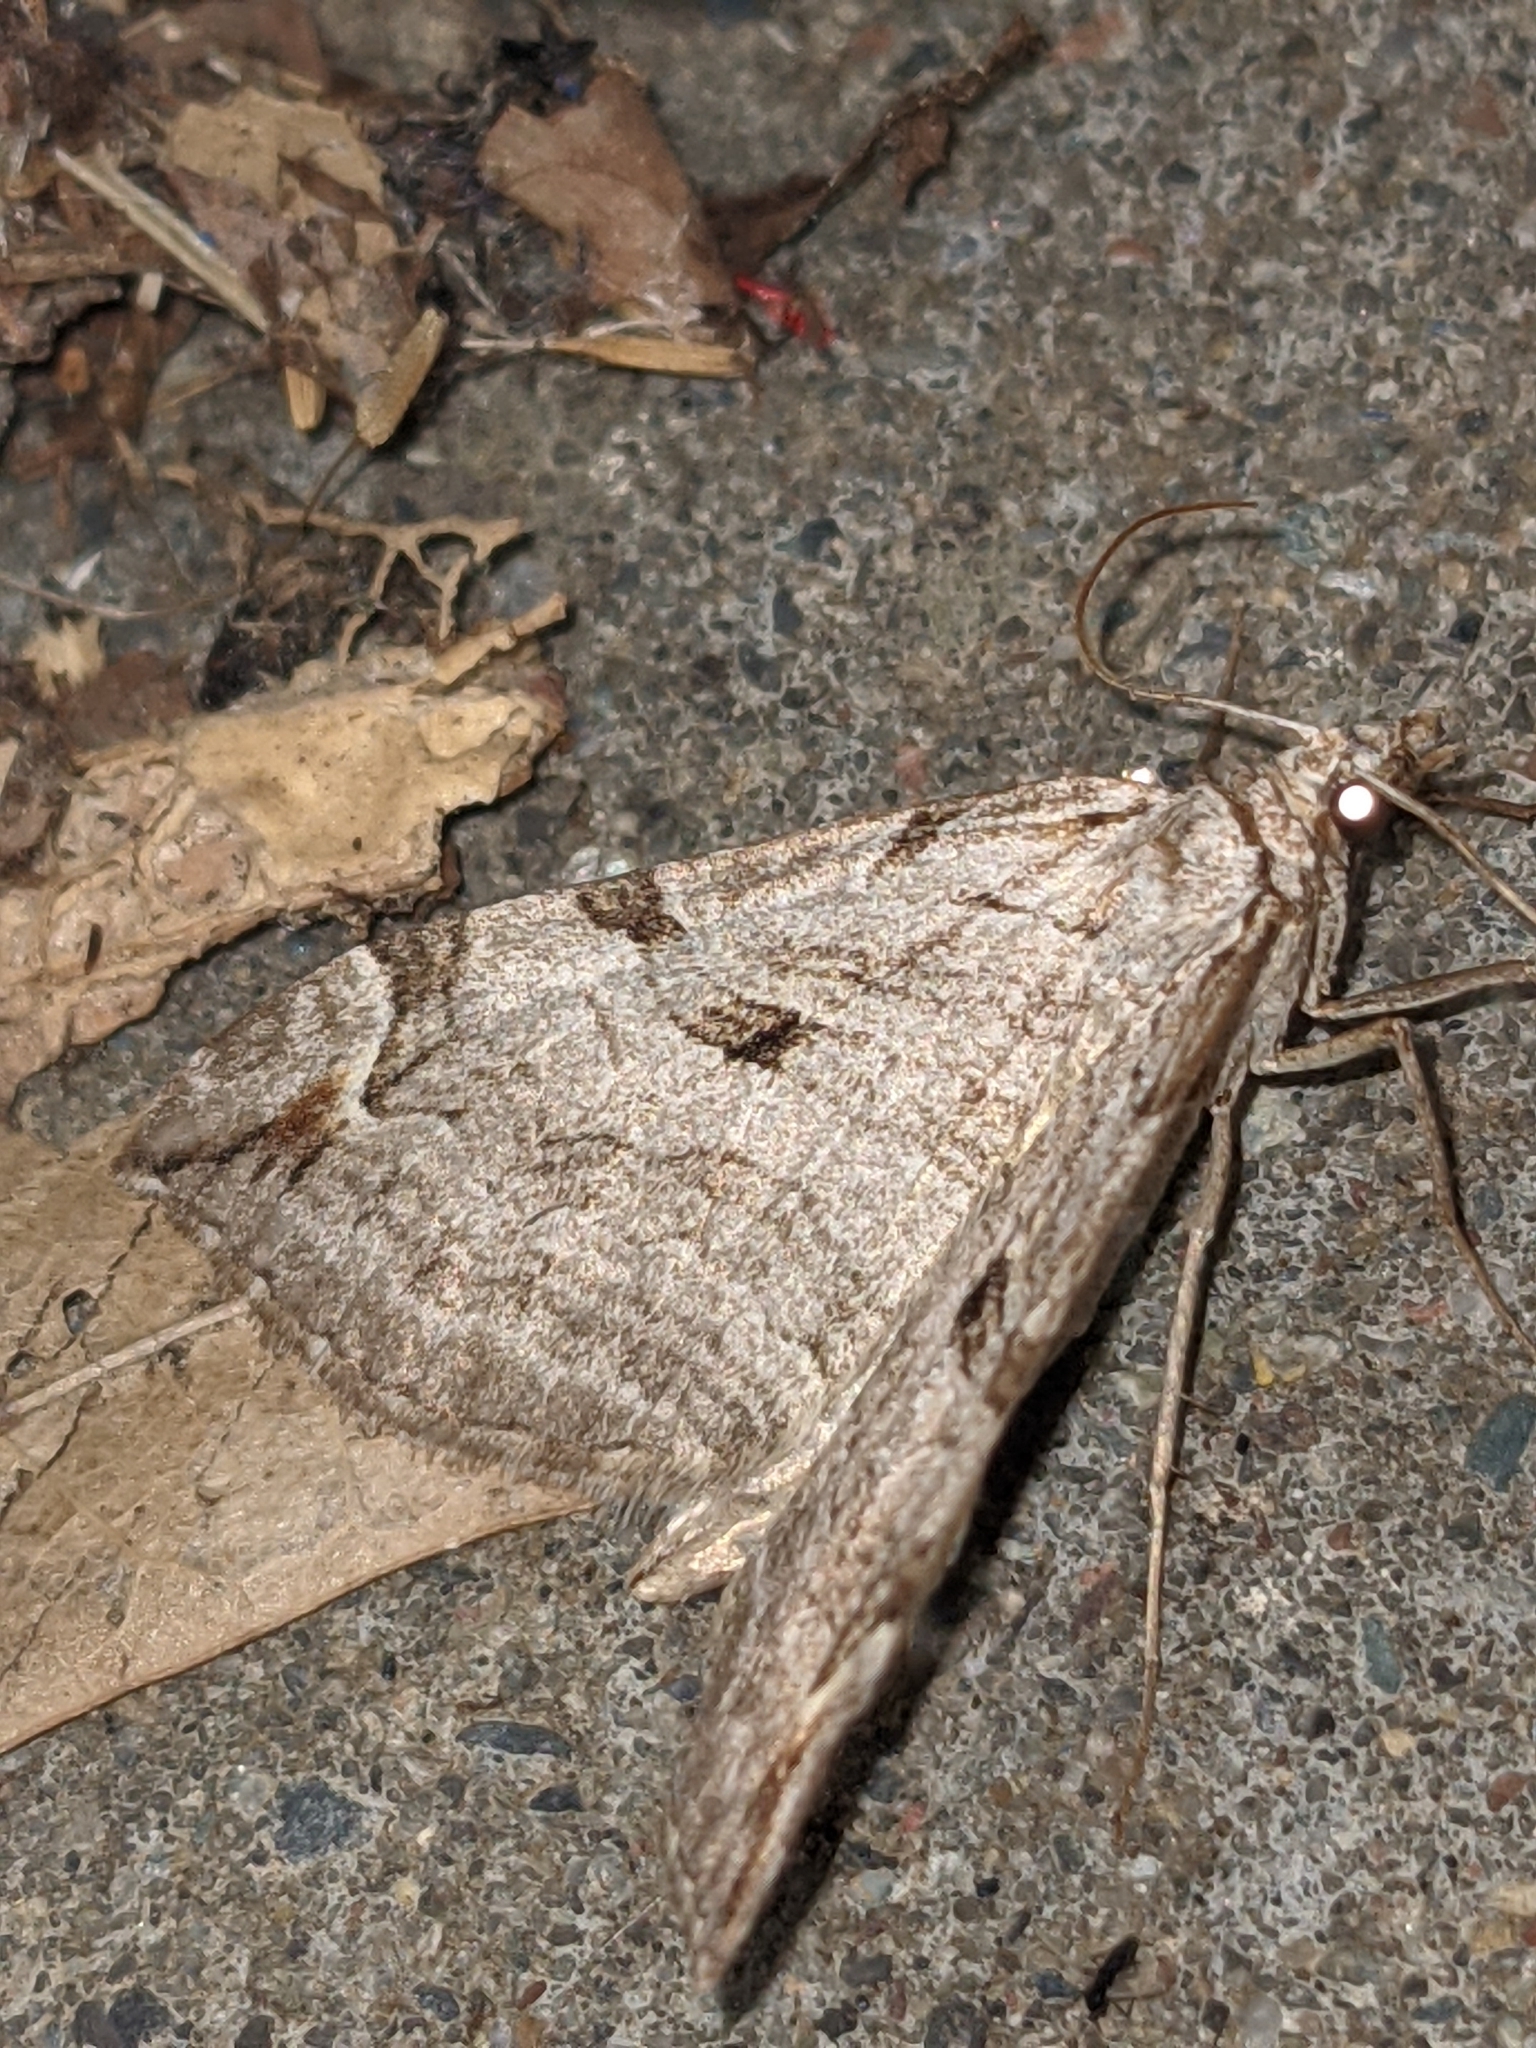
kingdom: Animalia
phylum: Arthropoda
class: Insecta
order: Lepidoptera
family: Geometridae
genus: Aplocera
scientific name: Aplocera plagiata
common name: Treble-bar
